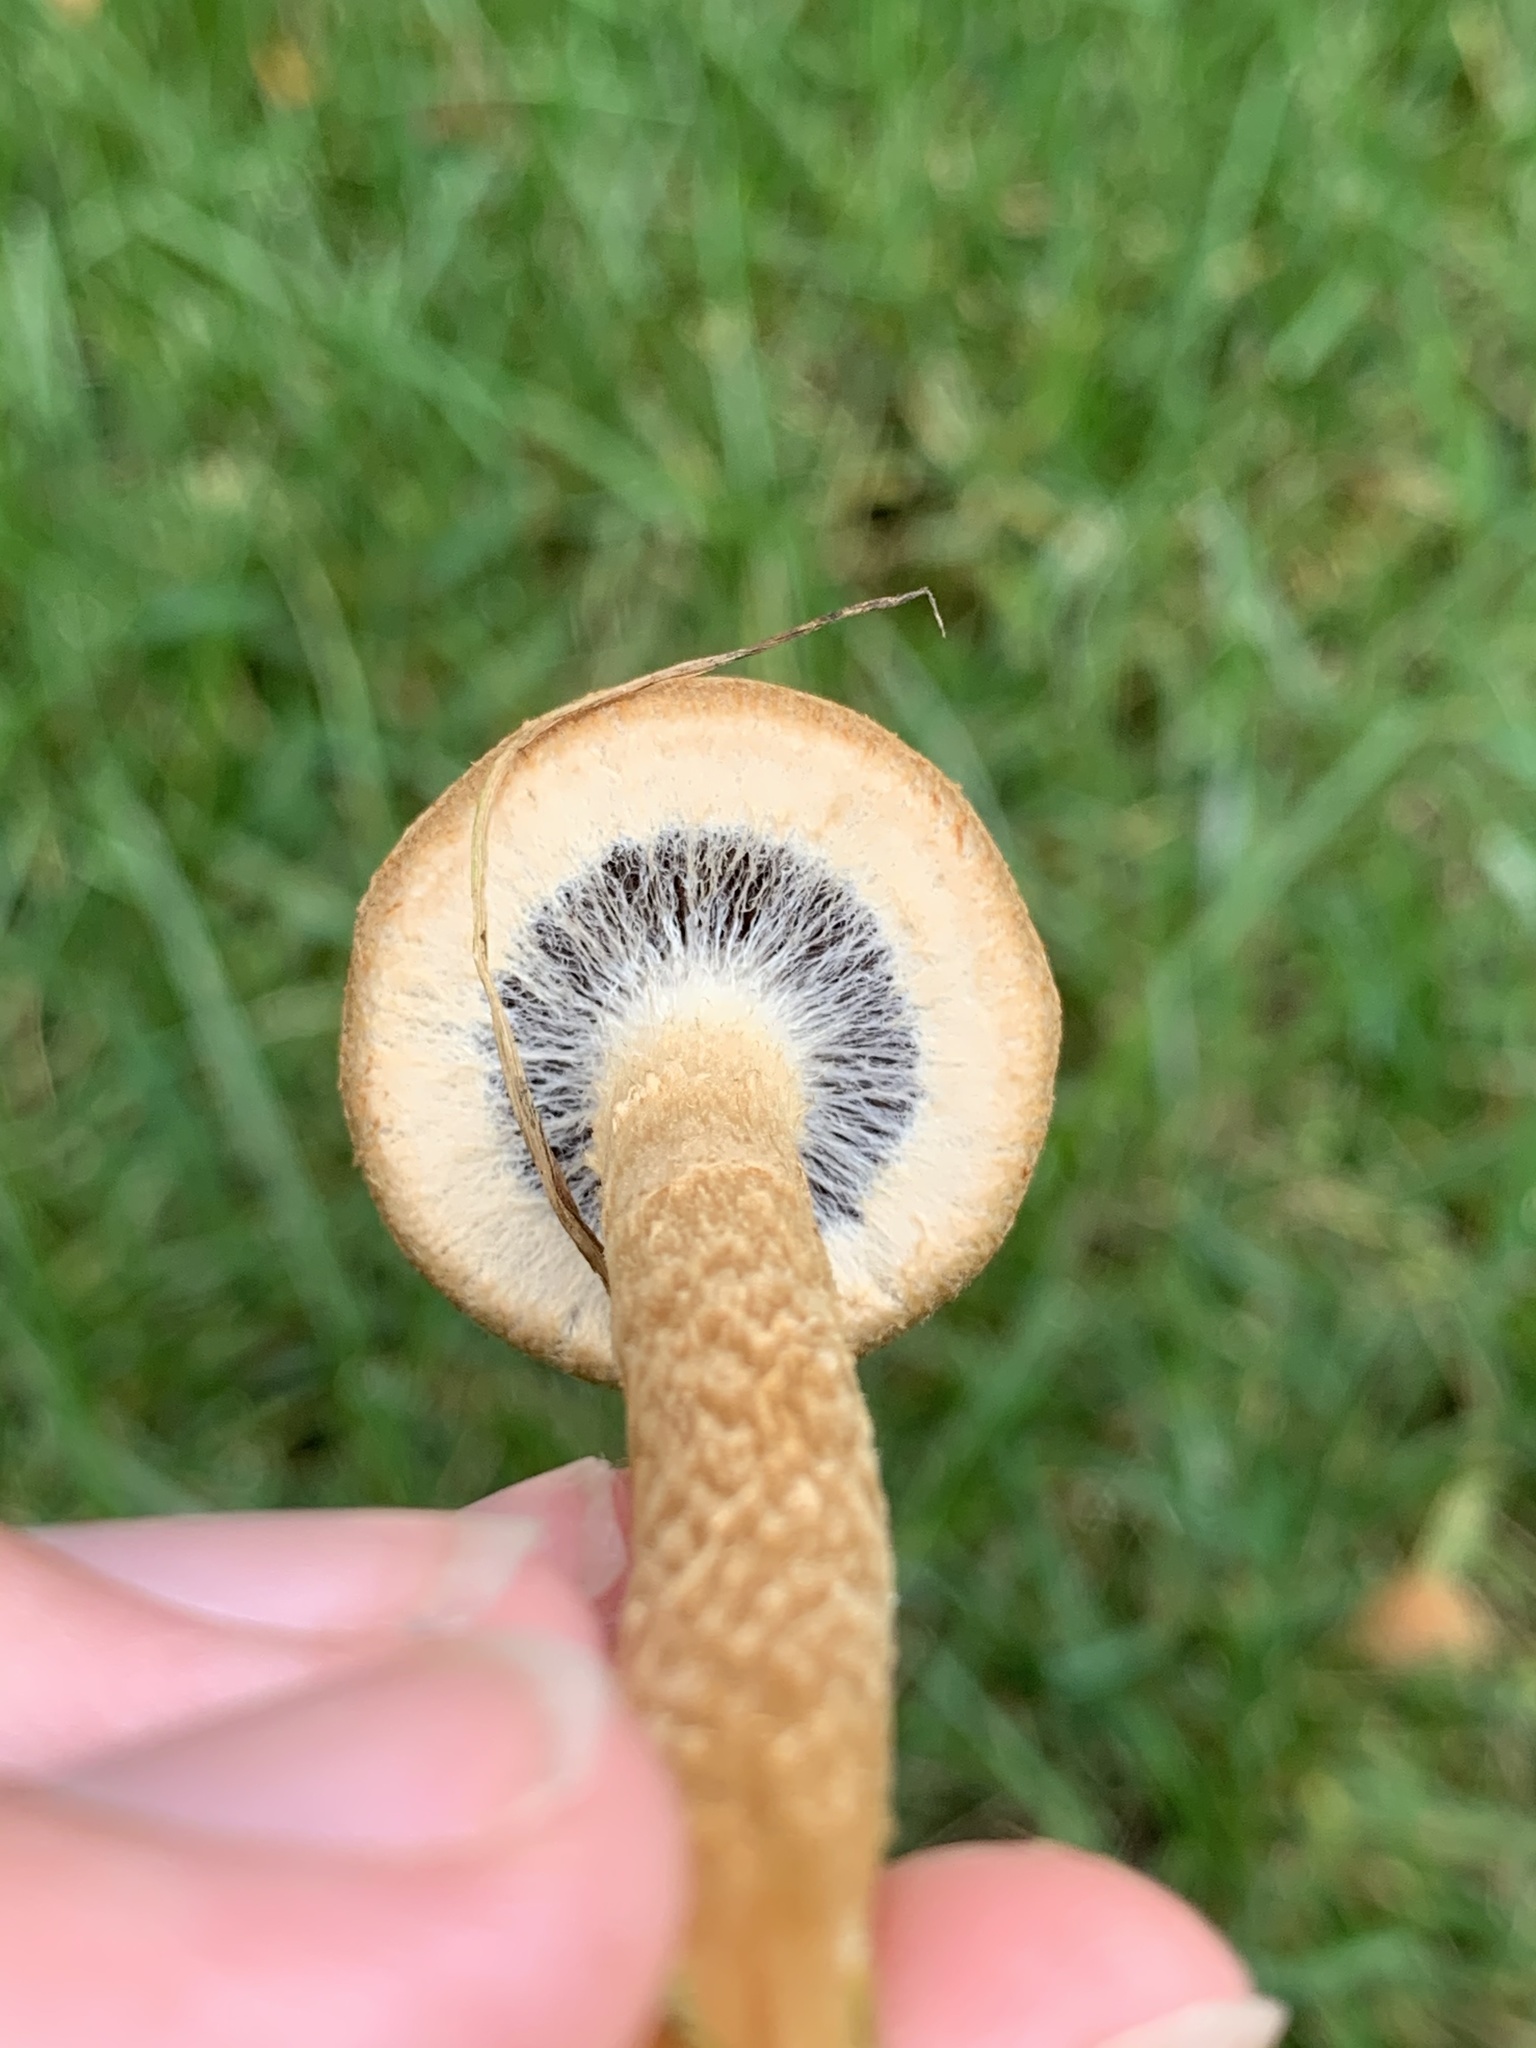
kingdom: Fungi
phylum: Basidiomycota
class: Agaricomycetes
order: Agaricales
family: Psathyrellaceae
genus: Lacrymaria
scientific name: Lacrymaria lacrymabunda
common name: Weeping widow
